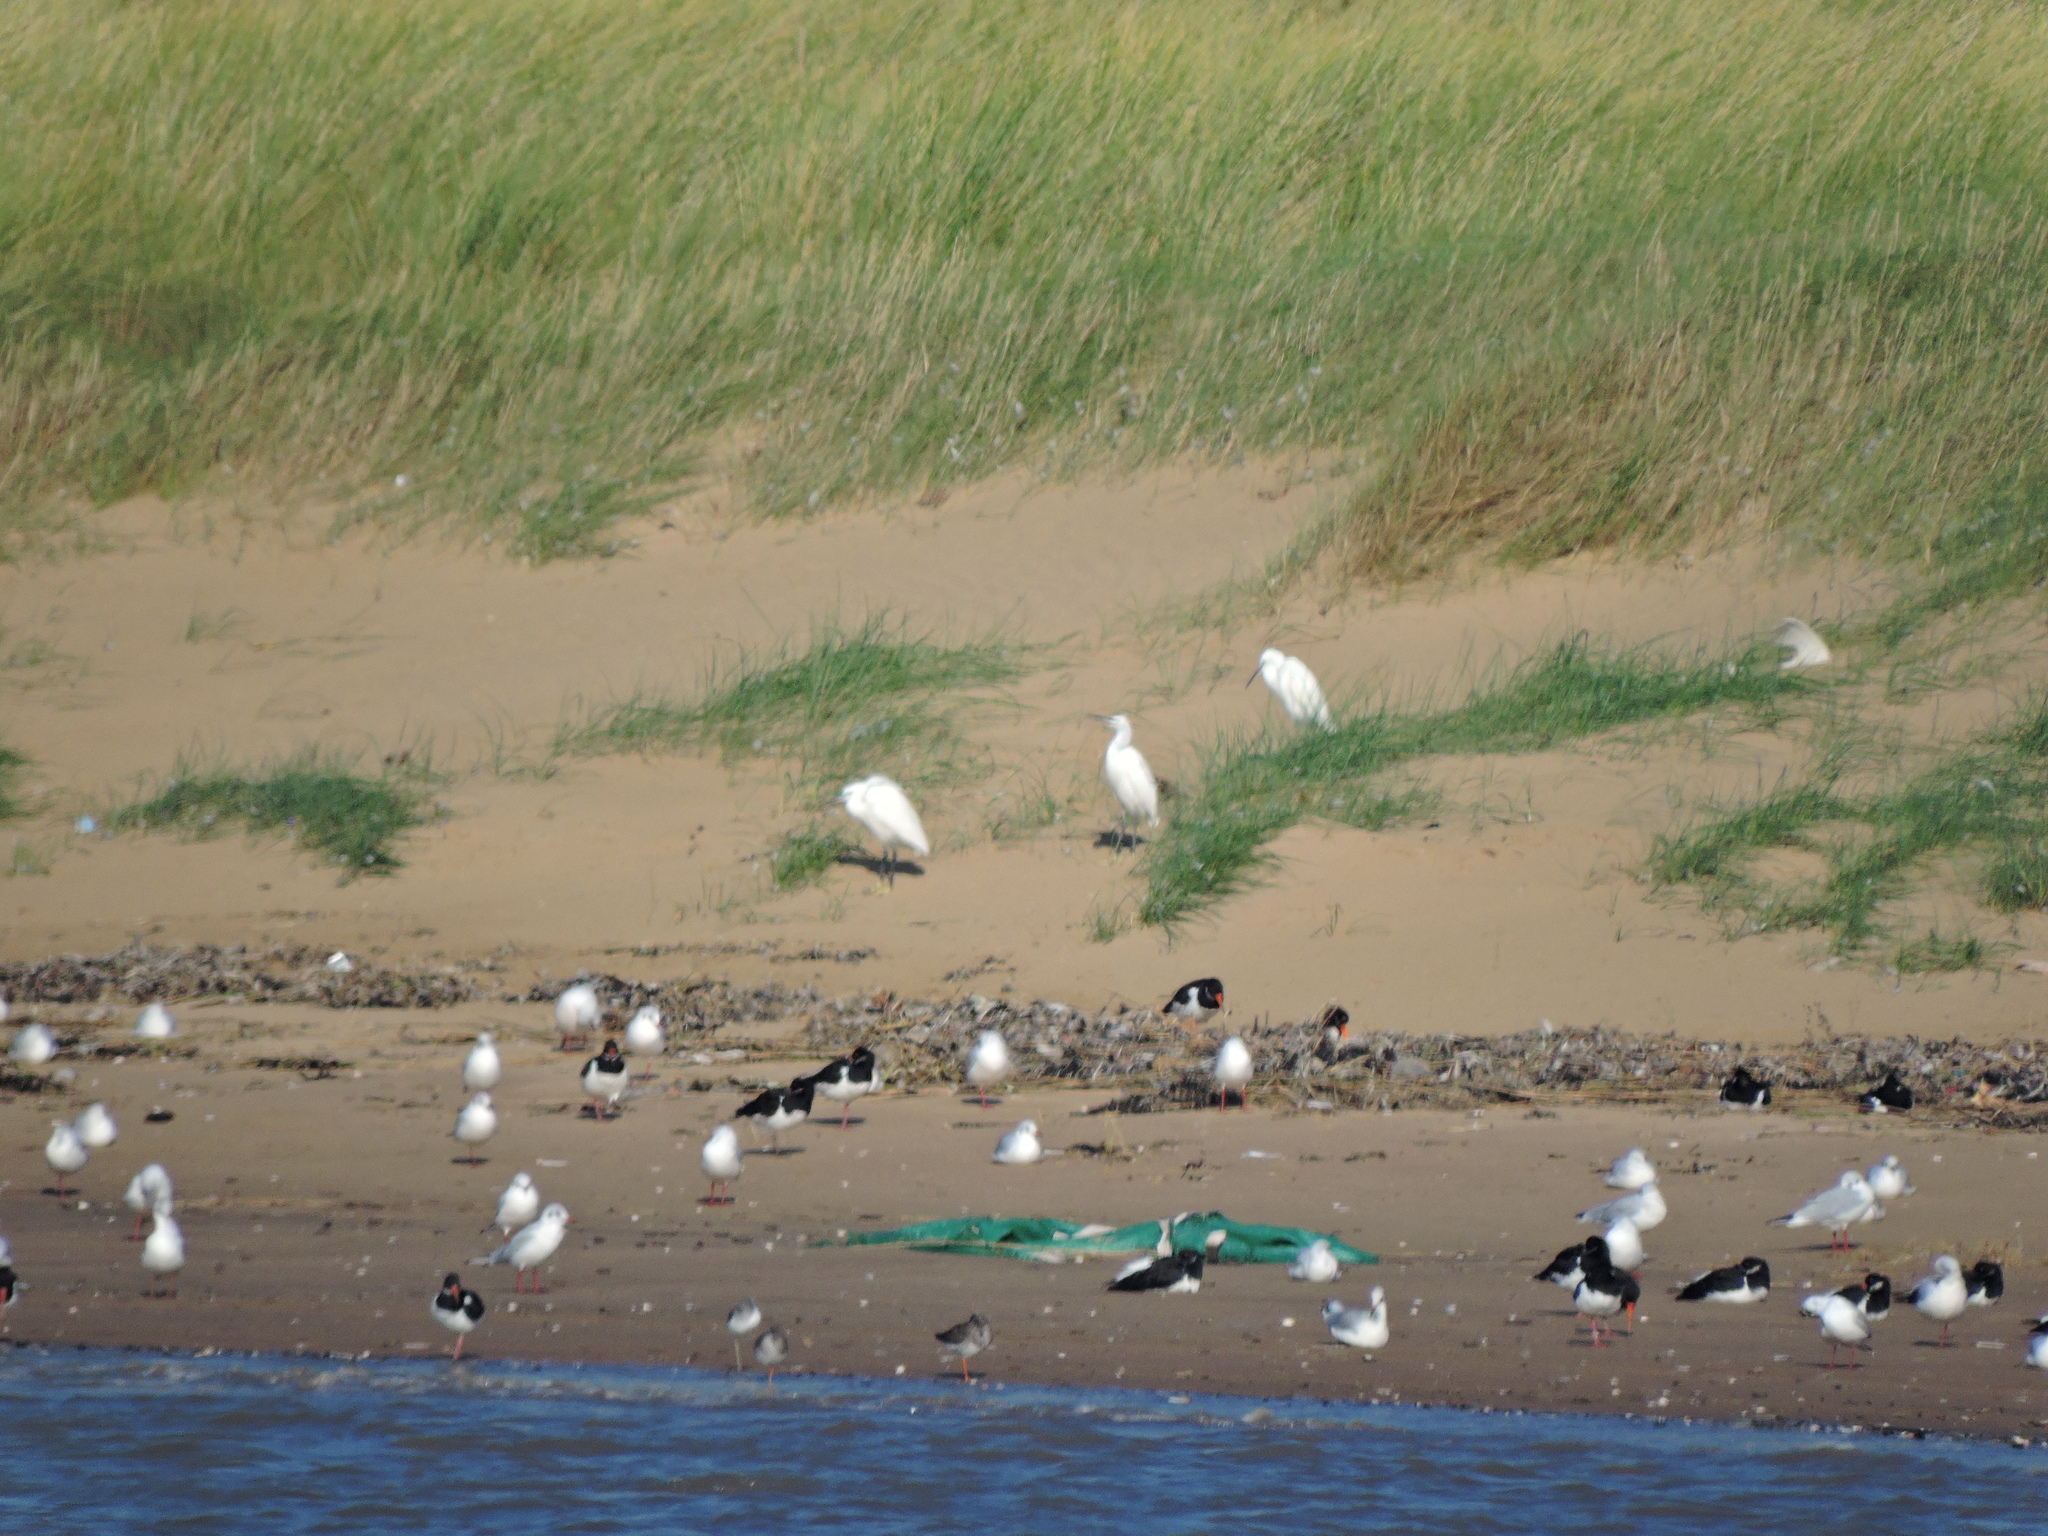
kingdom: Animalia
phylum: Chordata
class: Aves
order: Charadriiformes
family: Laridae
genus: Chroicocephalus
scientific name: Chroicocephalus ridibundus
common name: Black-headed gull
